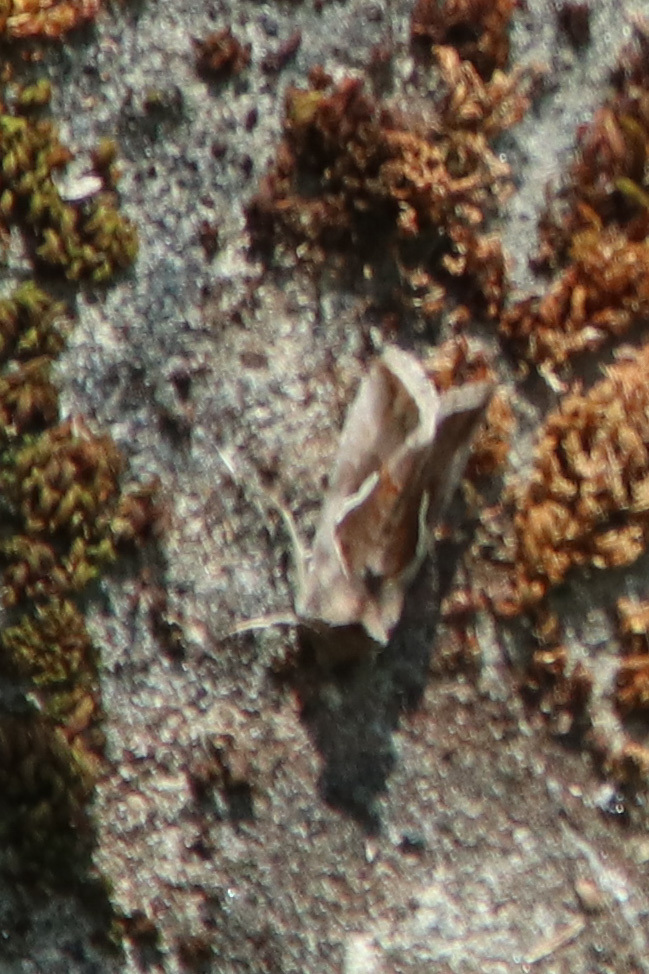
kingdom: Animalia
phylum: Arthropoda
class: Insecta
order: Lepidoptera
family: Noctuidae
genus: Macdunnoughia
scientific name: Macdunnoughia confusa
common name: Dewick's plusia
